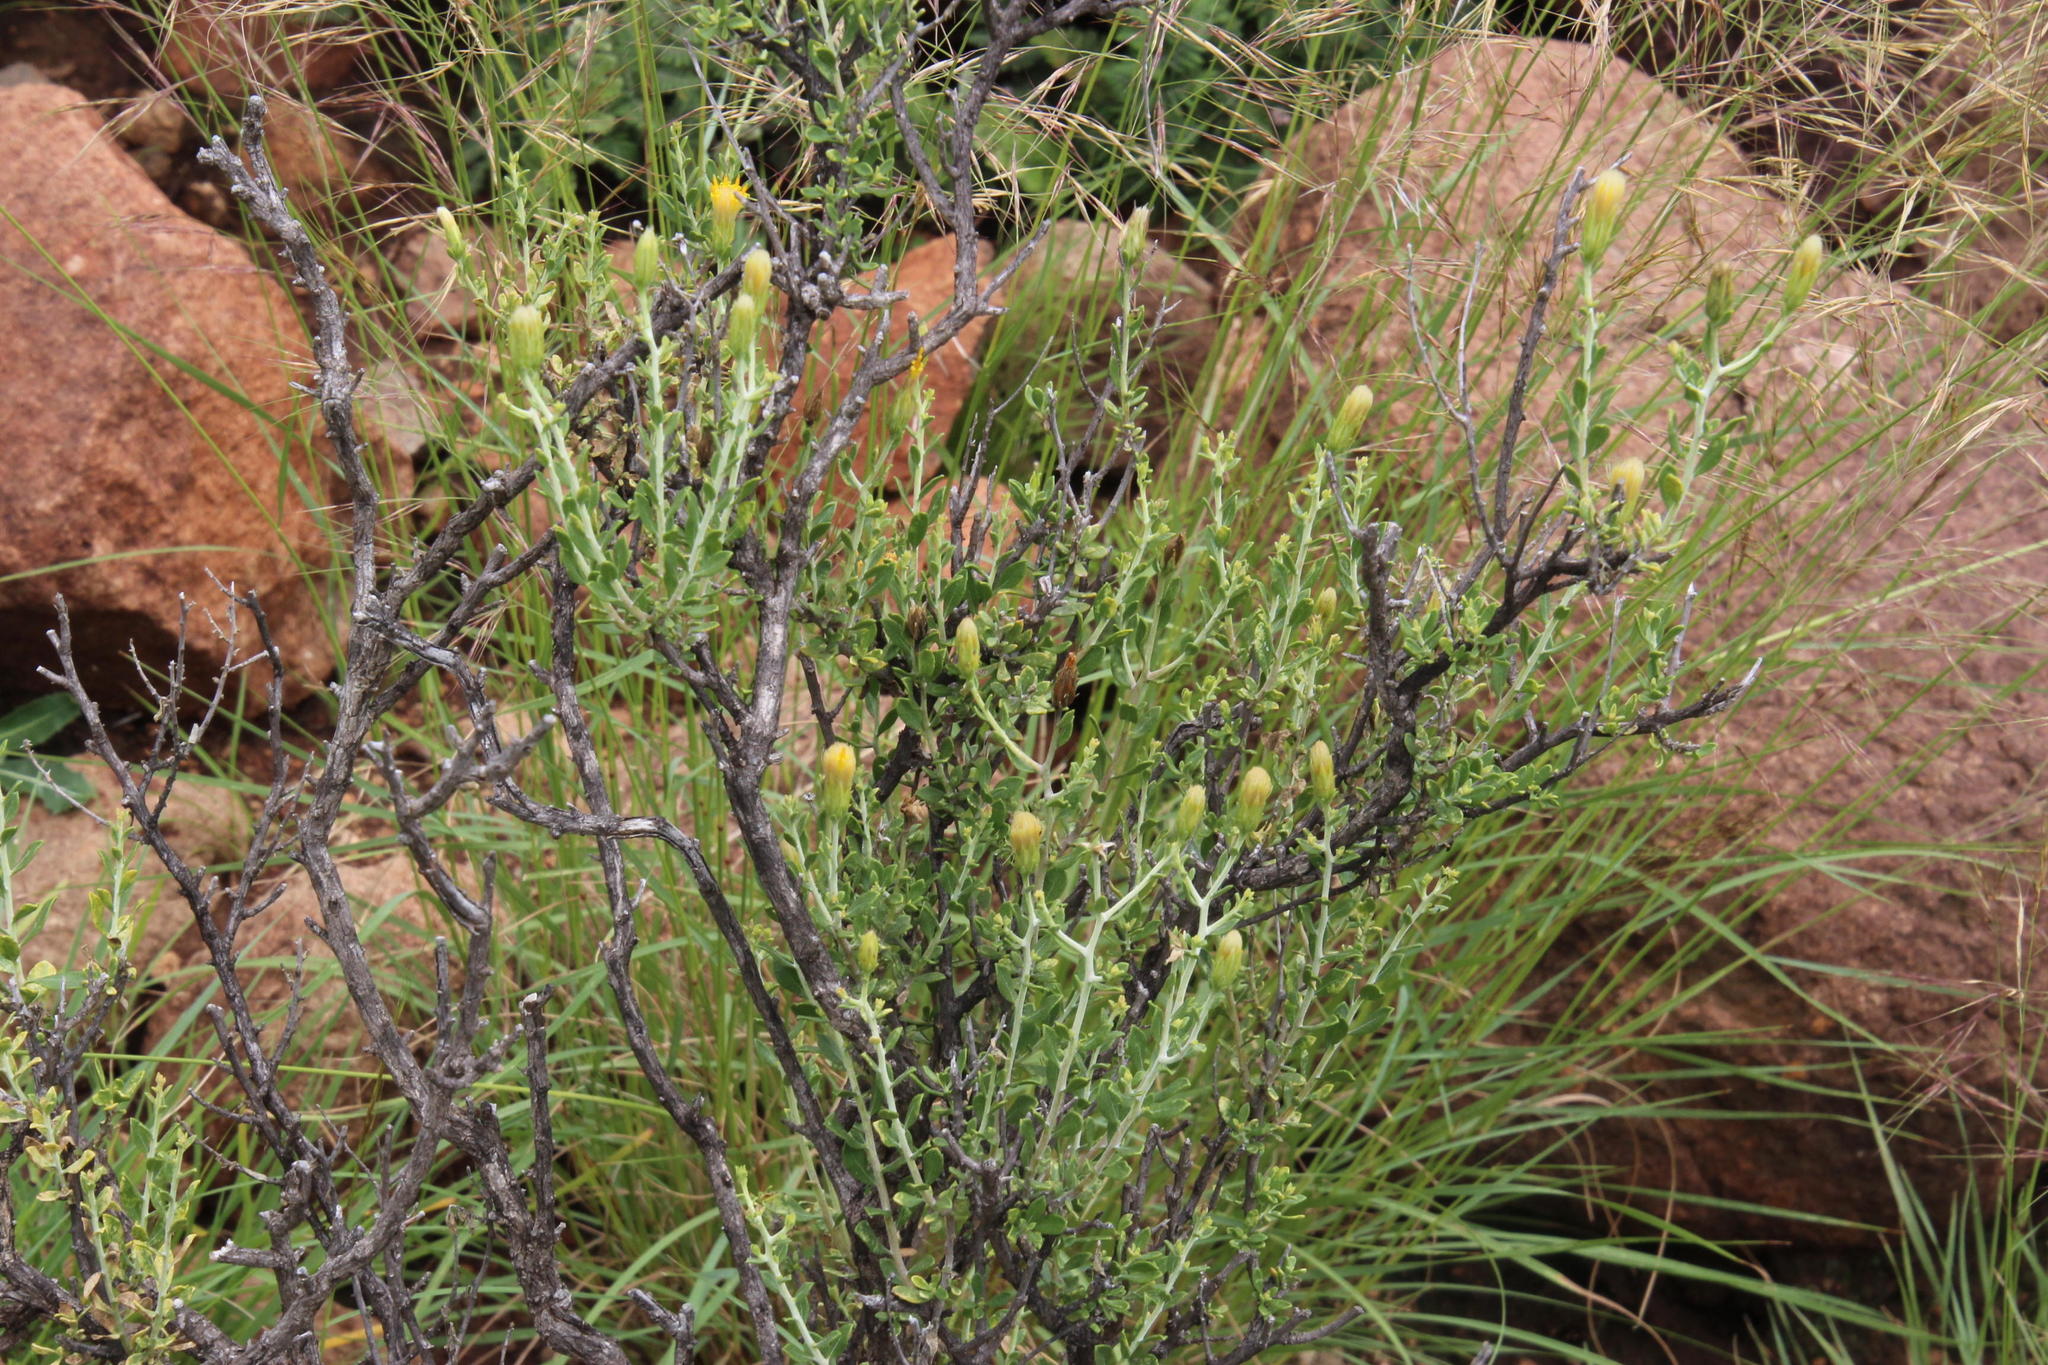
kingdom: Plantae
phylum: Tracheophyta
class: Magnoliopsida
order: Asterales
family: Asteraceae
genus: Pegolettia
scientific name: Pegolettia retrofracta
